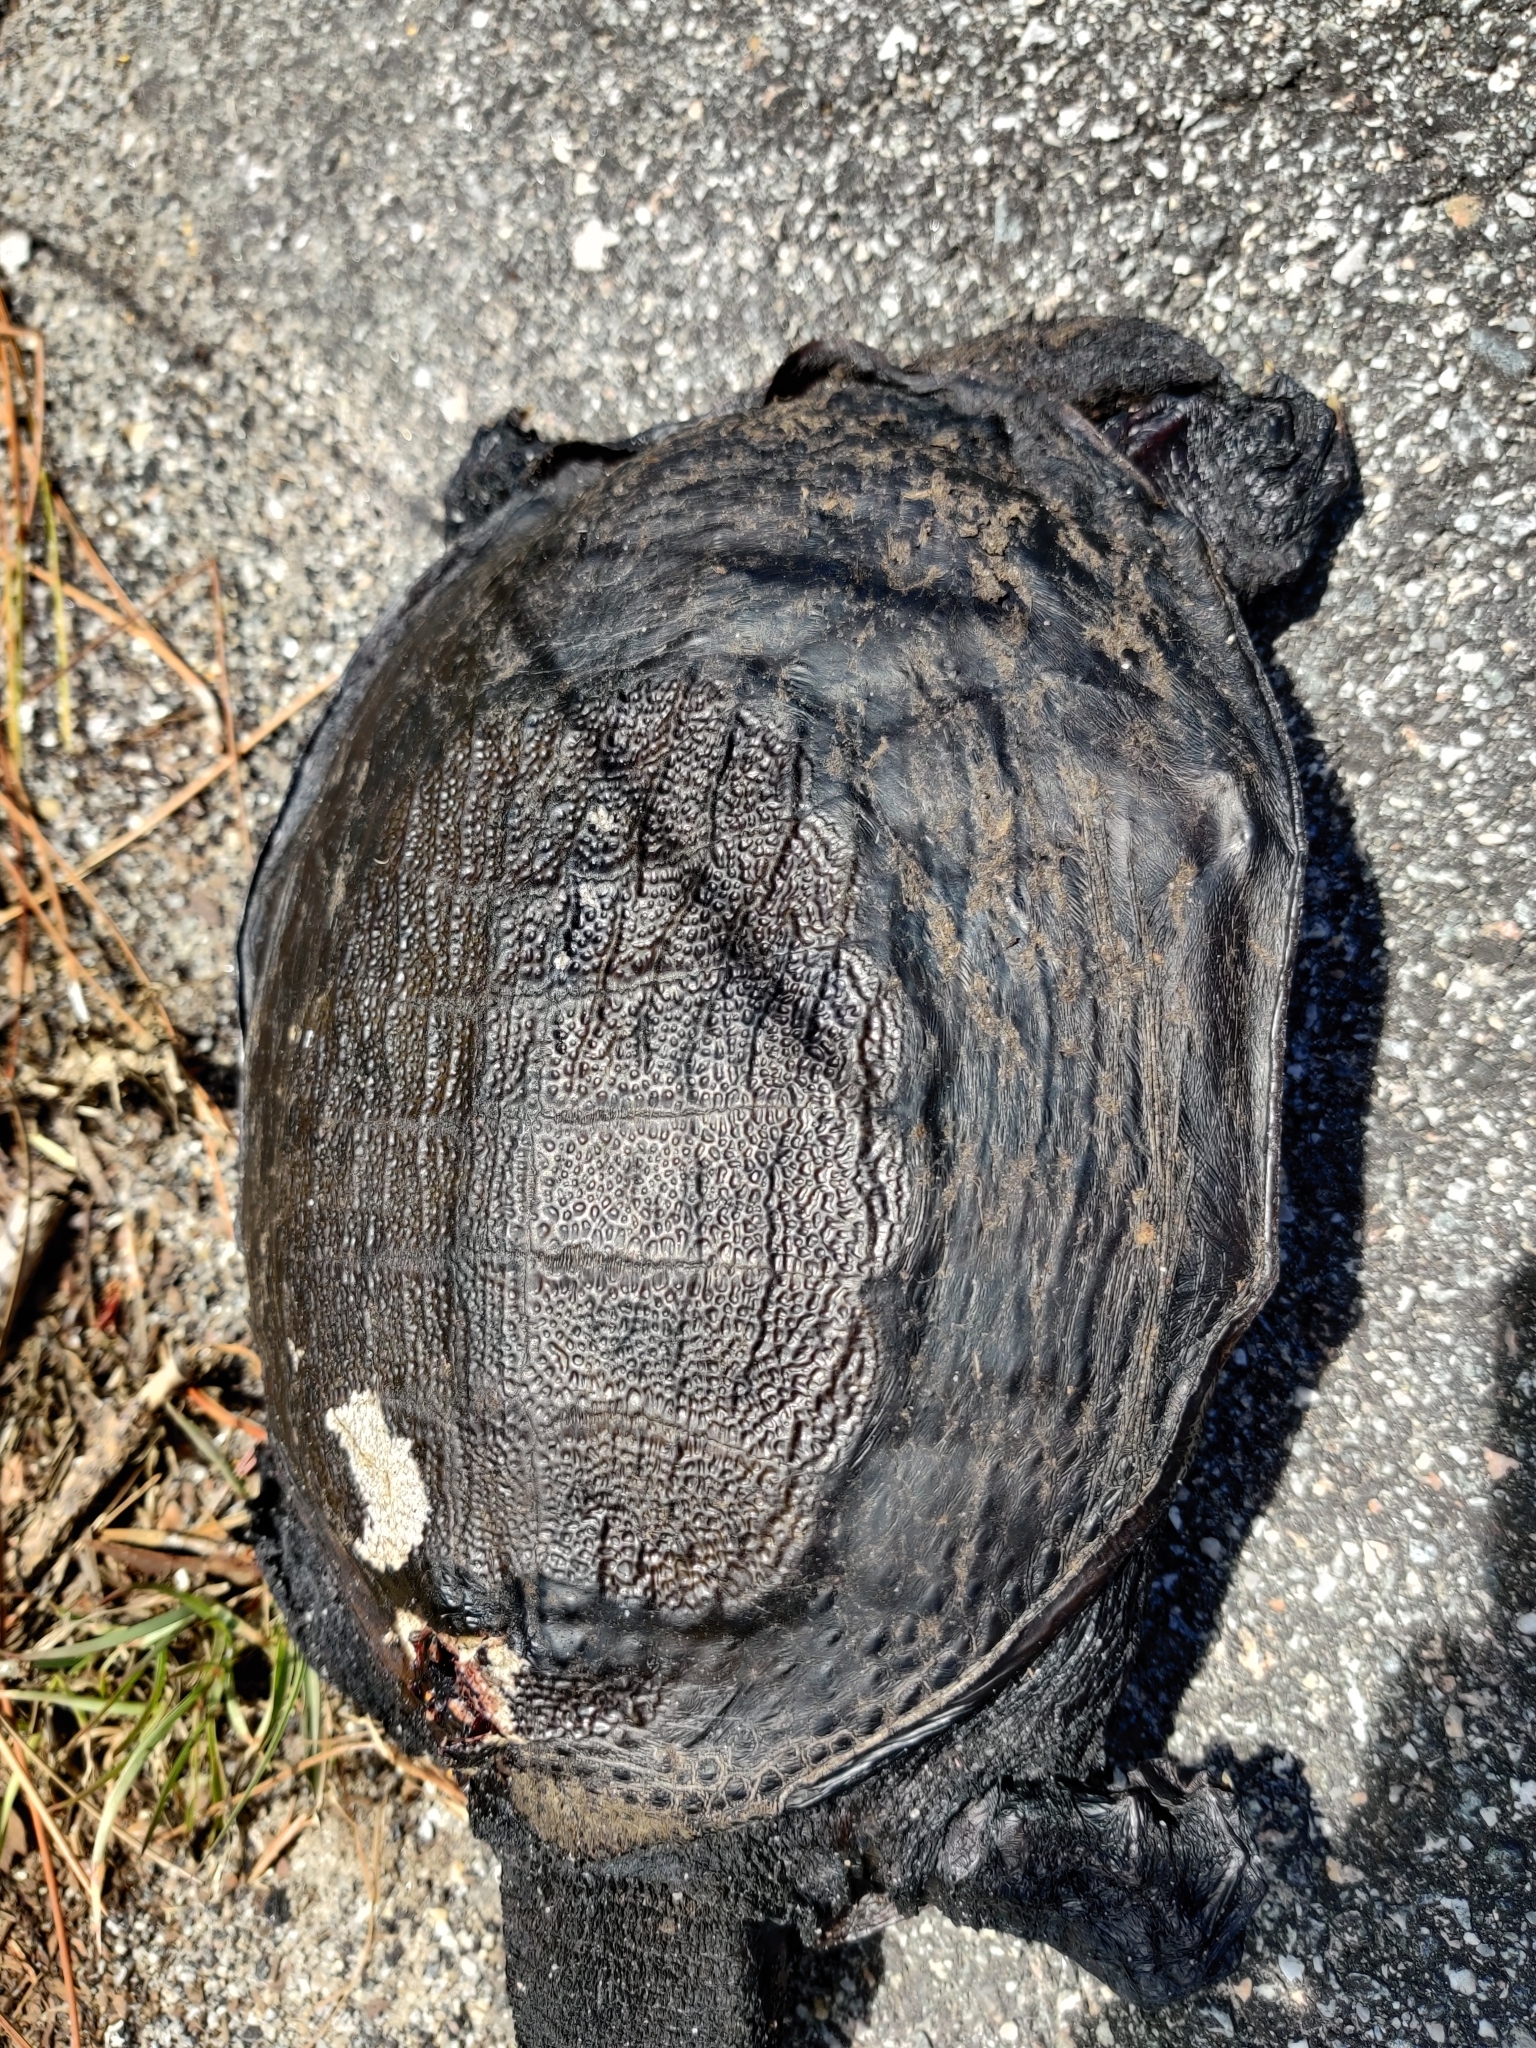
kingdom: Animalia
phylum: Chordata
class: Testudines
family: Trionychidae
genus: Apalone
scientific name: Apalone ferox
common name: Florida softshell turtle
